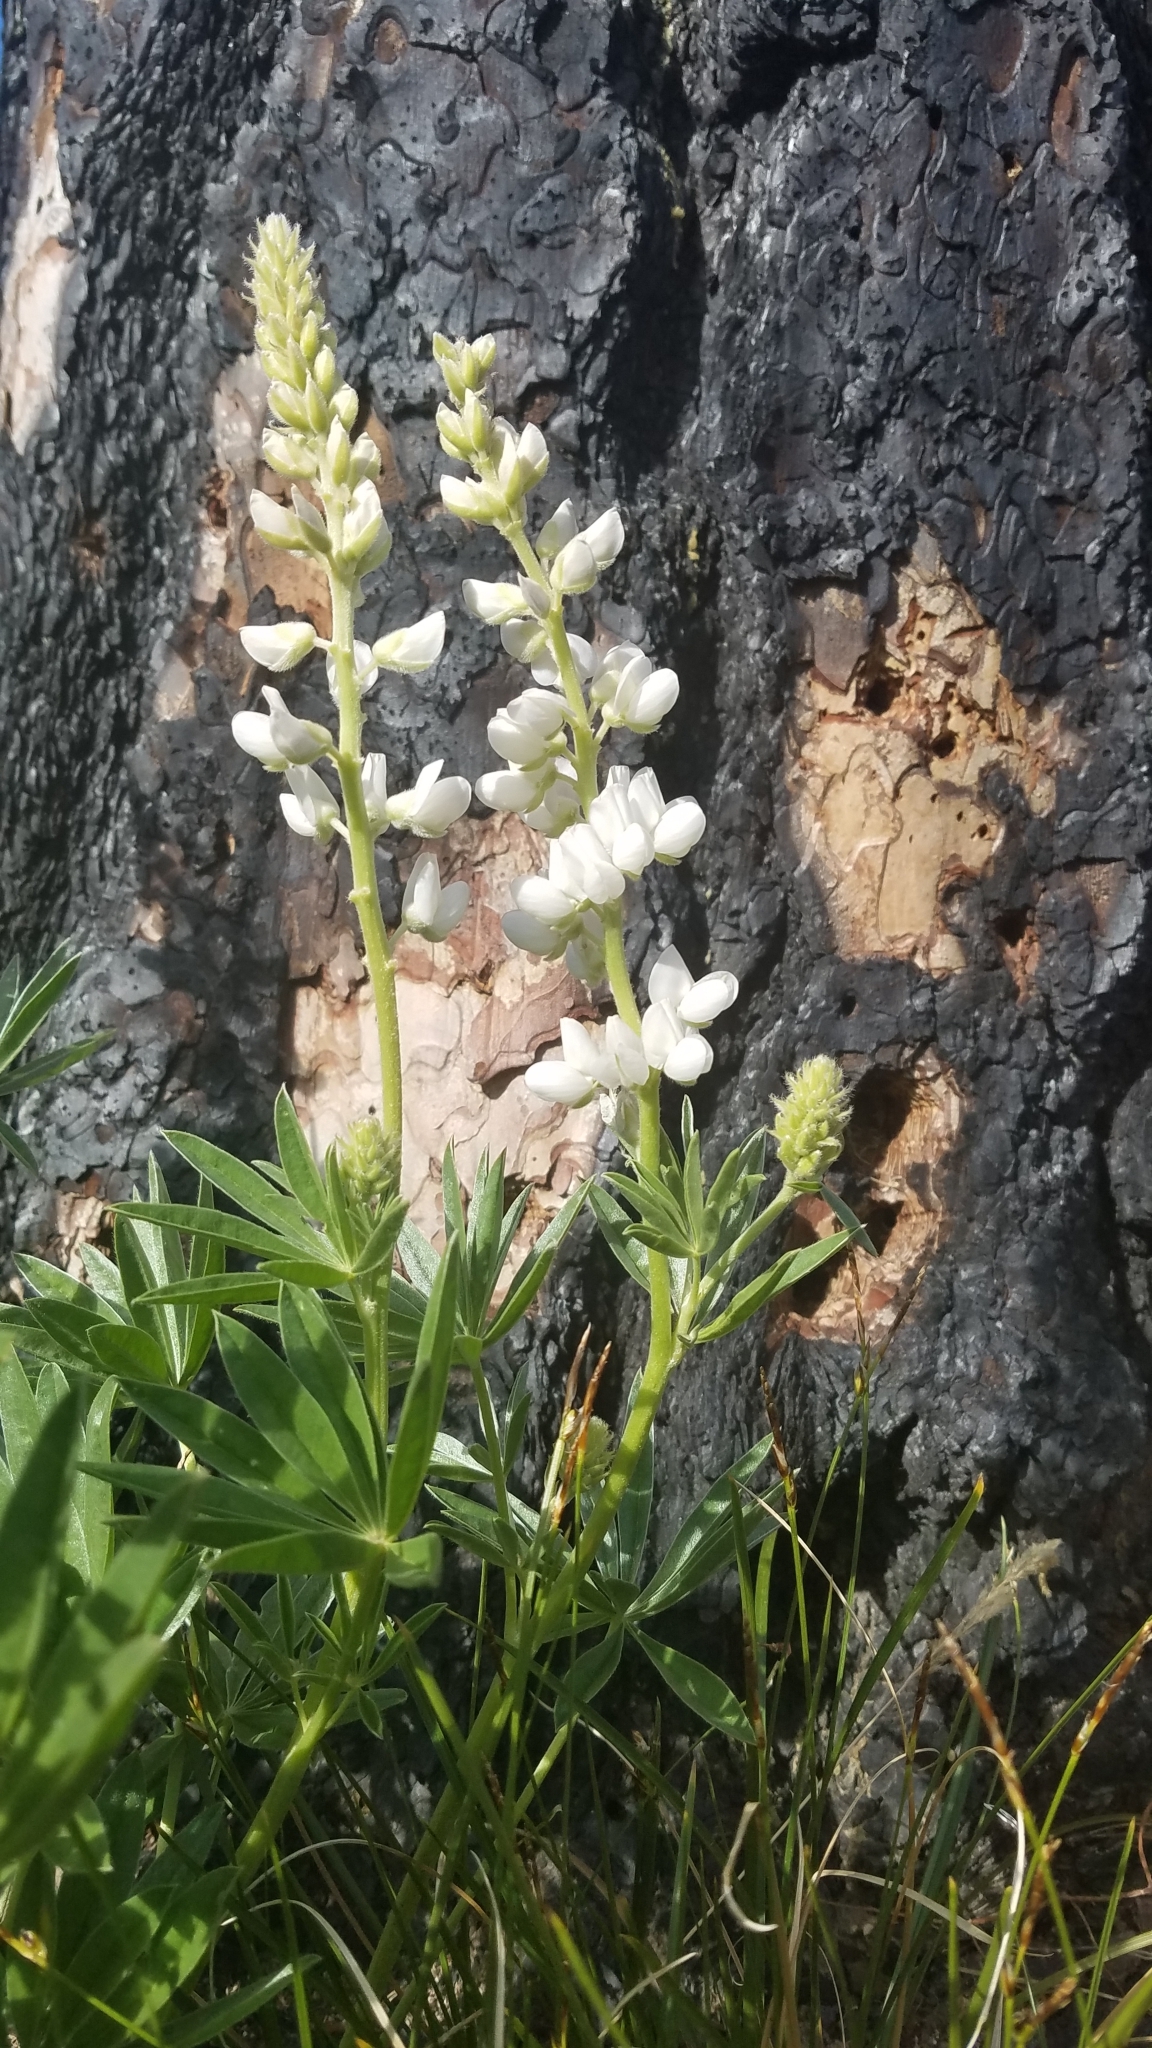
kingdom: Plantae
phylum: Tracheophyta
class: Magnoliopsida
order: Fabales
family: Fabaceae
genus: Lupinus
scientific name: Lupinus polyphyllus
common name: Garden lupin
